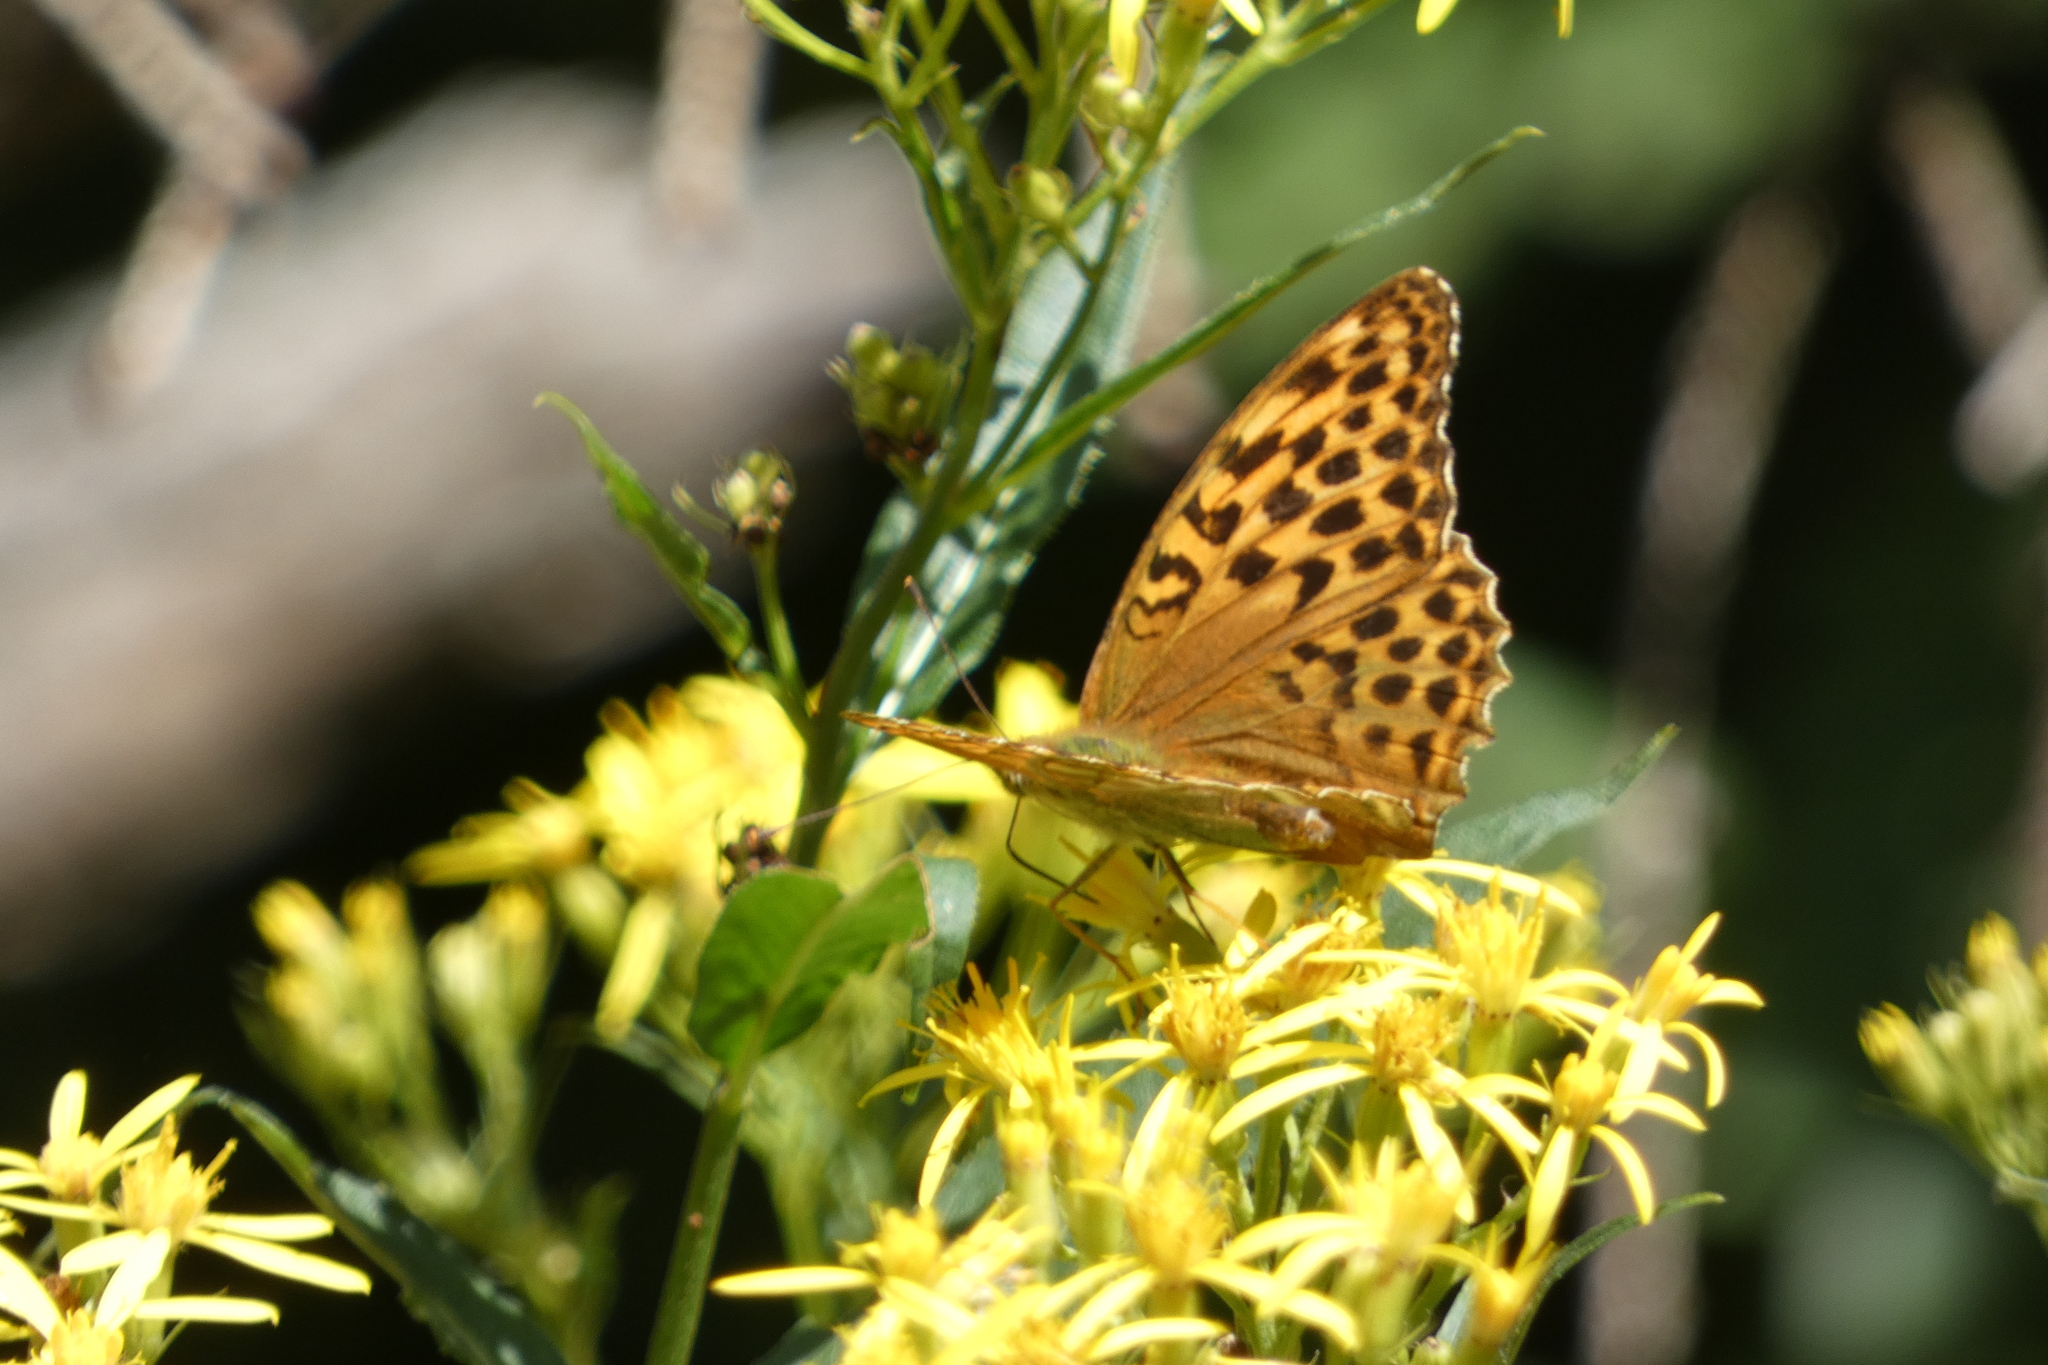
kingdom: Animalia
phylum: Arthropoda
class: Insecta
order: Lepidoptera
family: Nymphalidae
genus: Argynnis
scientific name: Argynnis paphia
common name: Silver-washed fritillary
